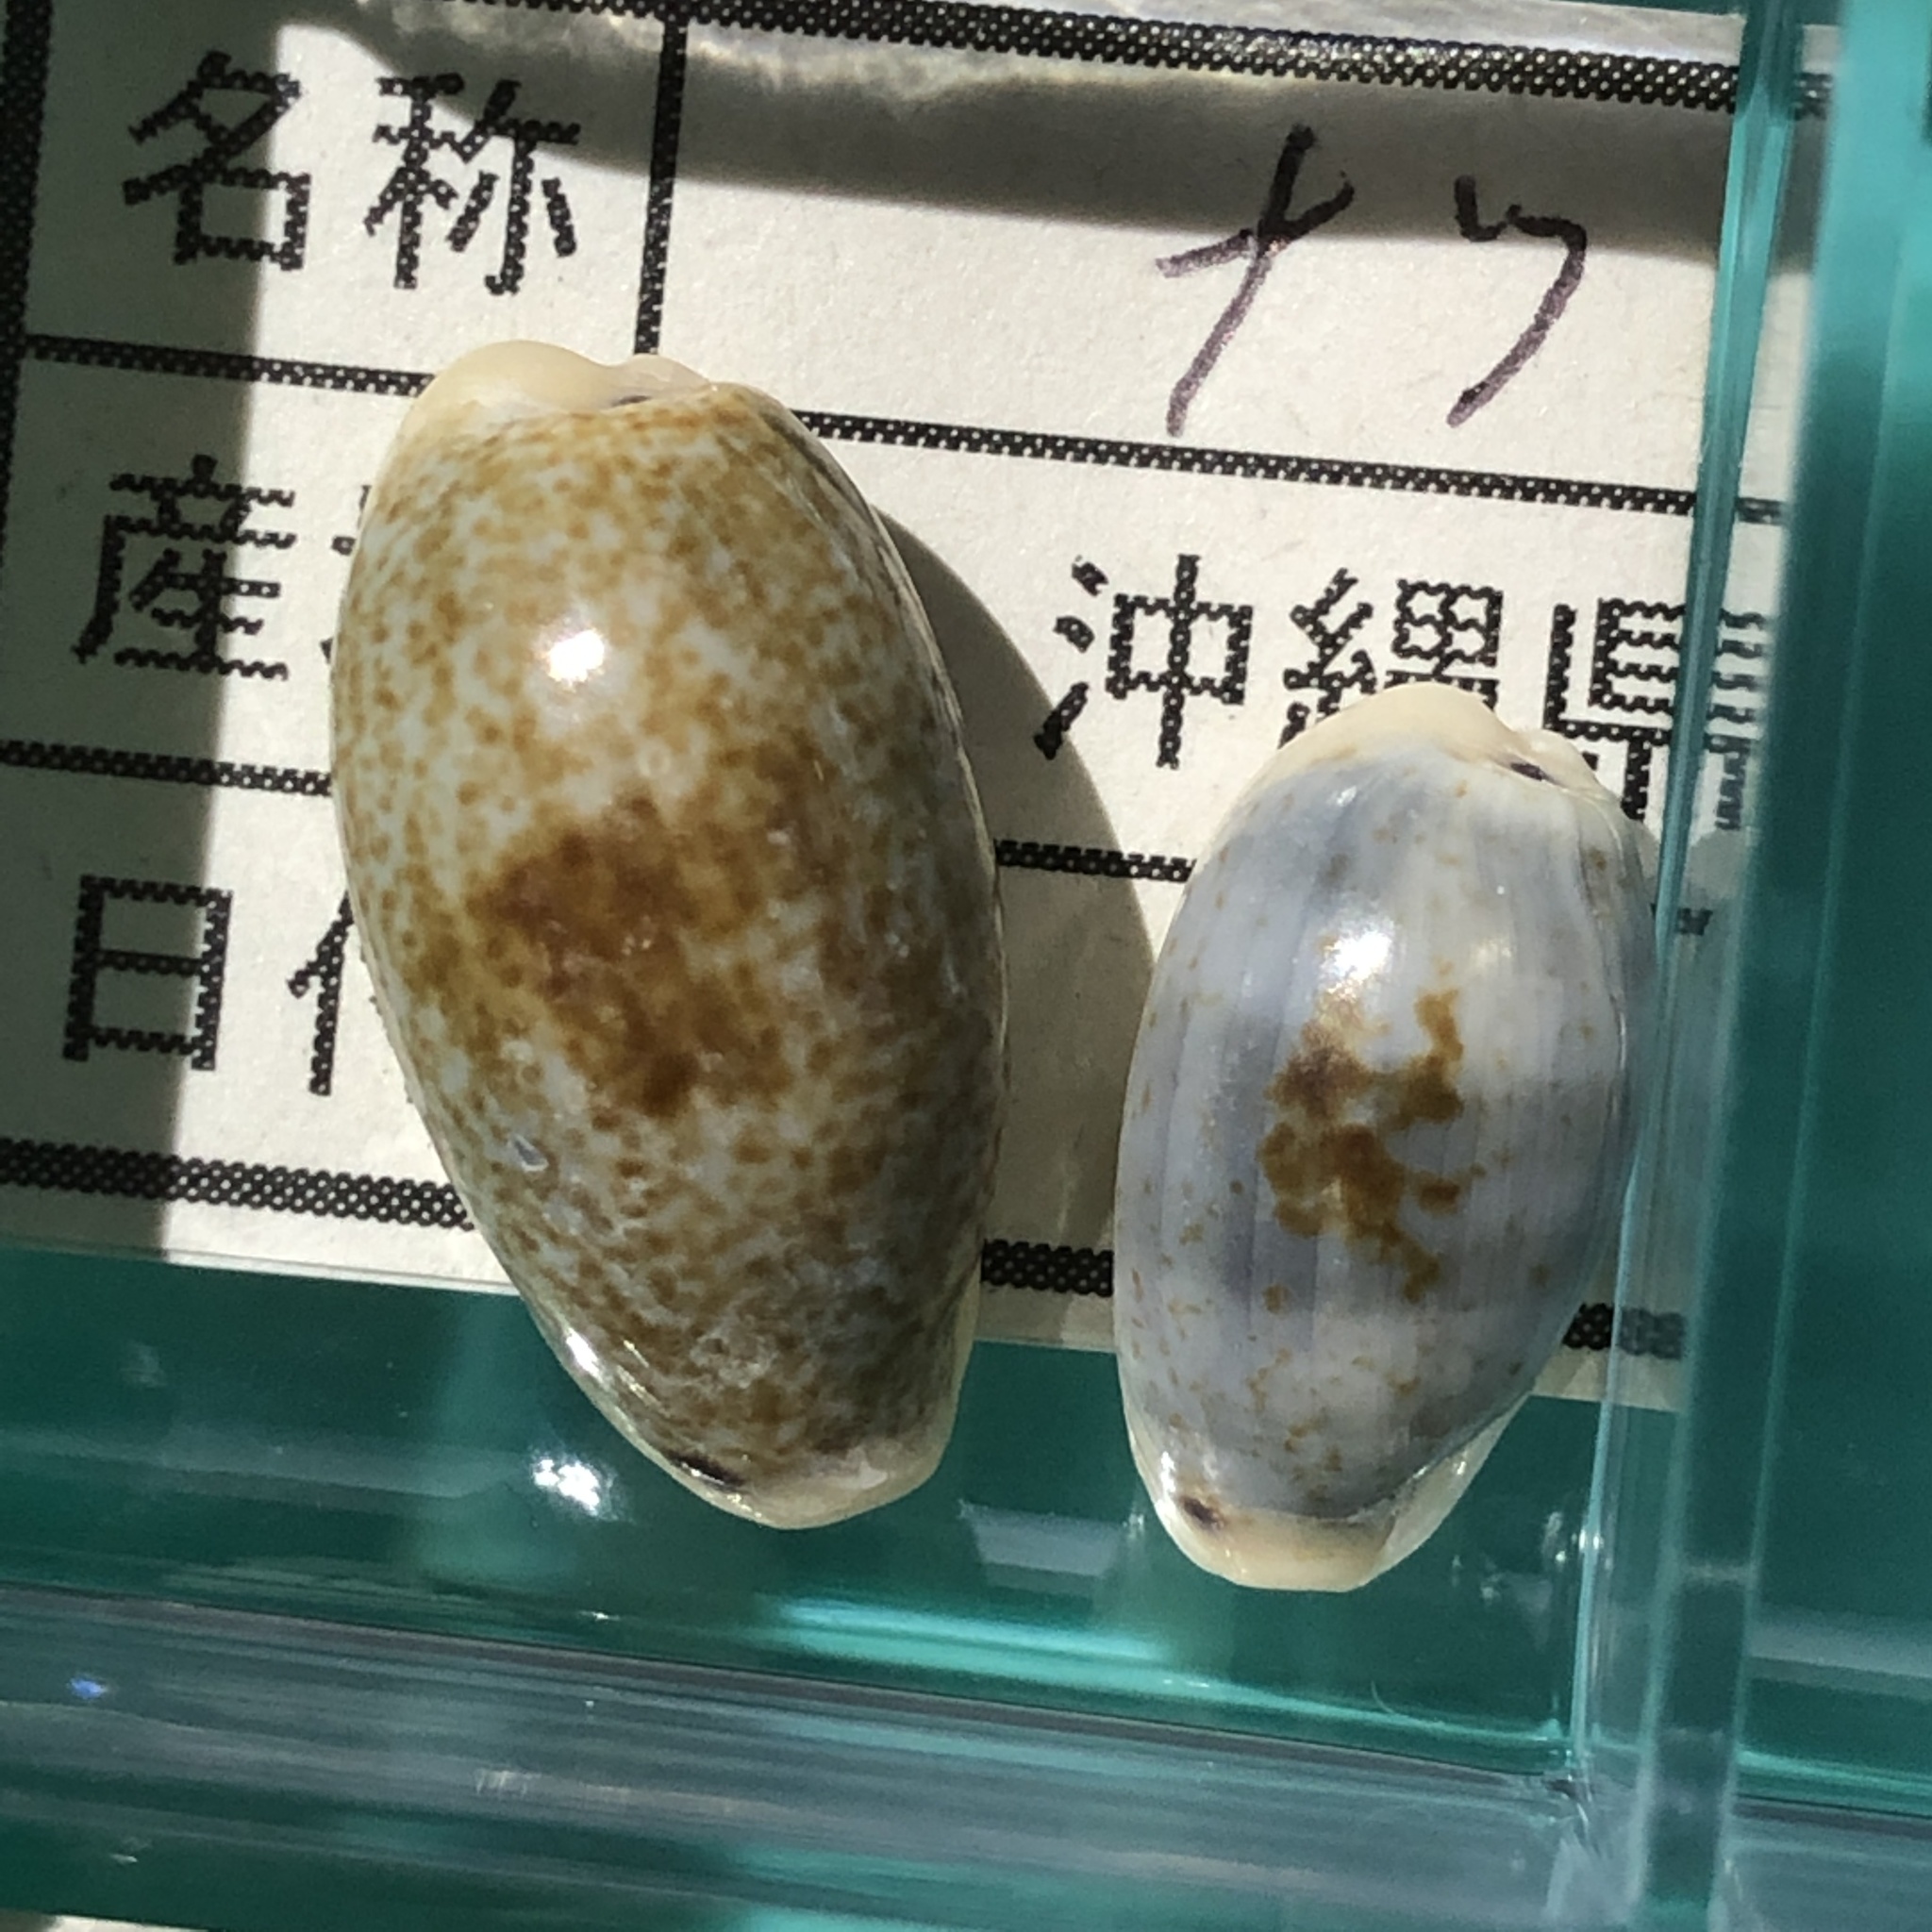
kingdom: Animalia
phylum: Mollusca
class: Gastropoda
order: Littorinimorpha
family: Cypraeidae
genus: Erronea
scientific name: Erronea errones
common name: Mistaken cowrie
